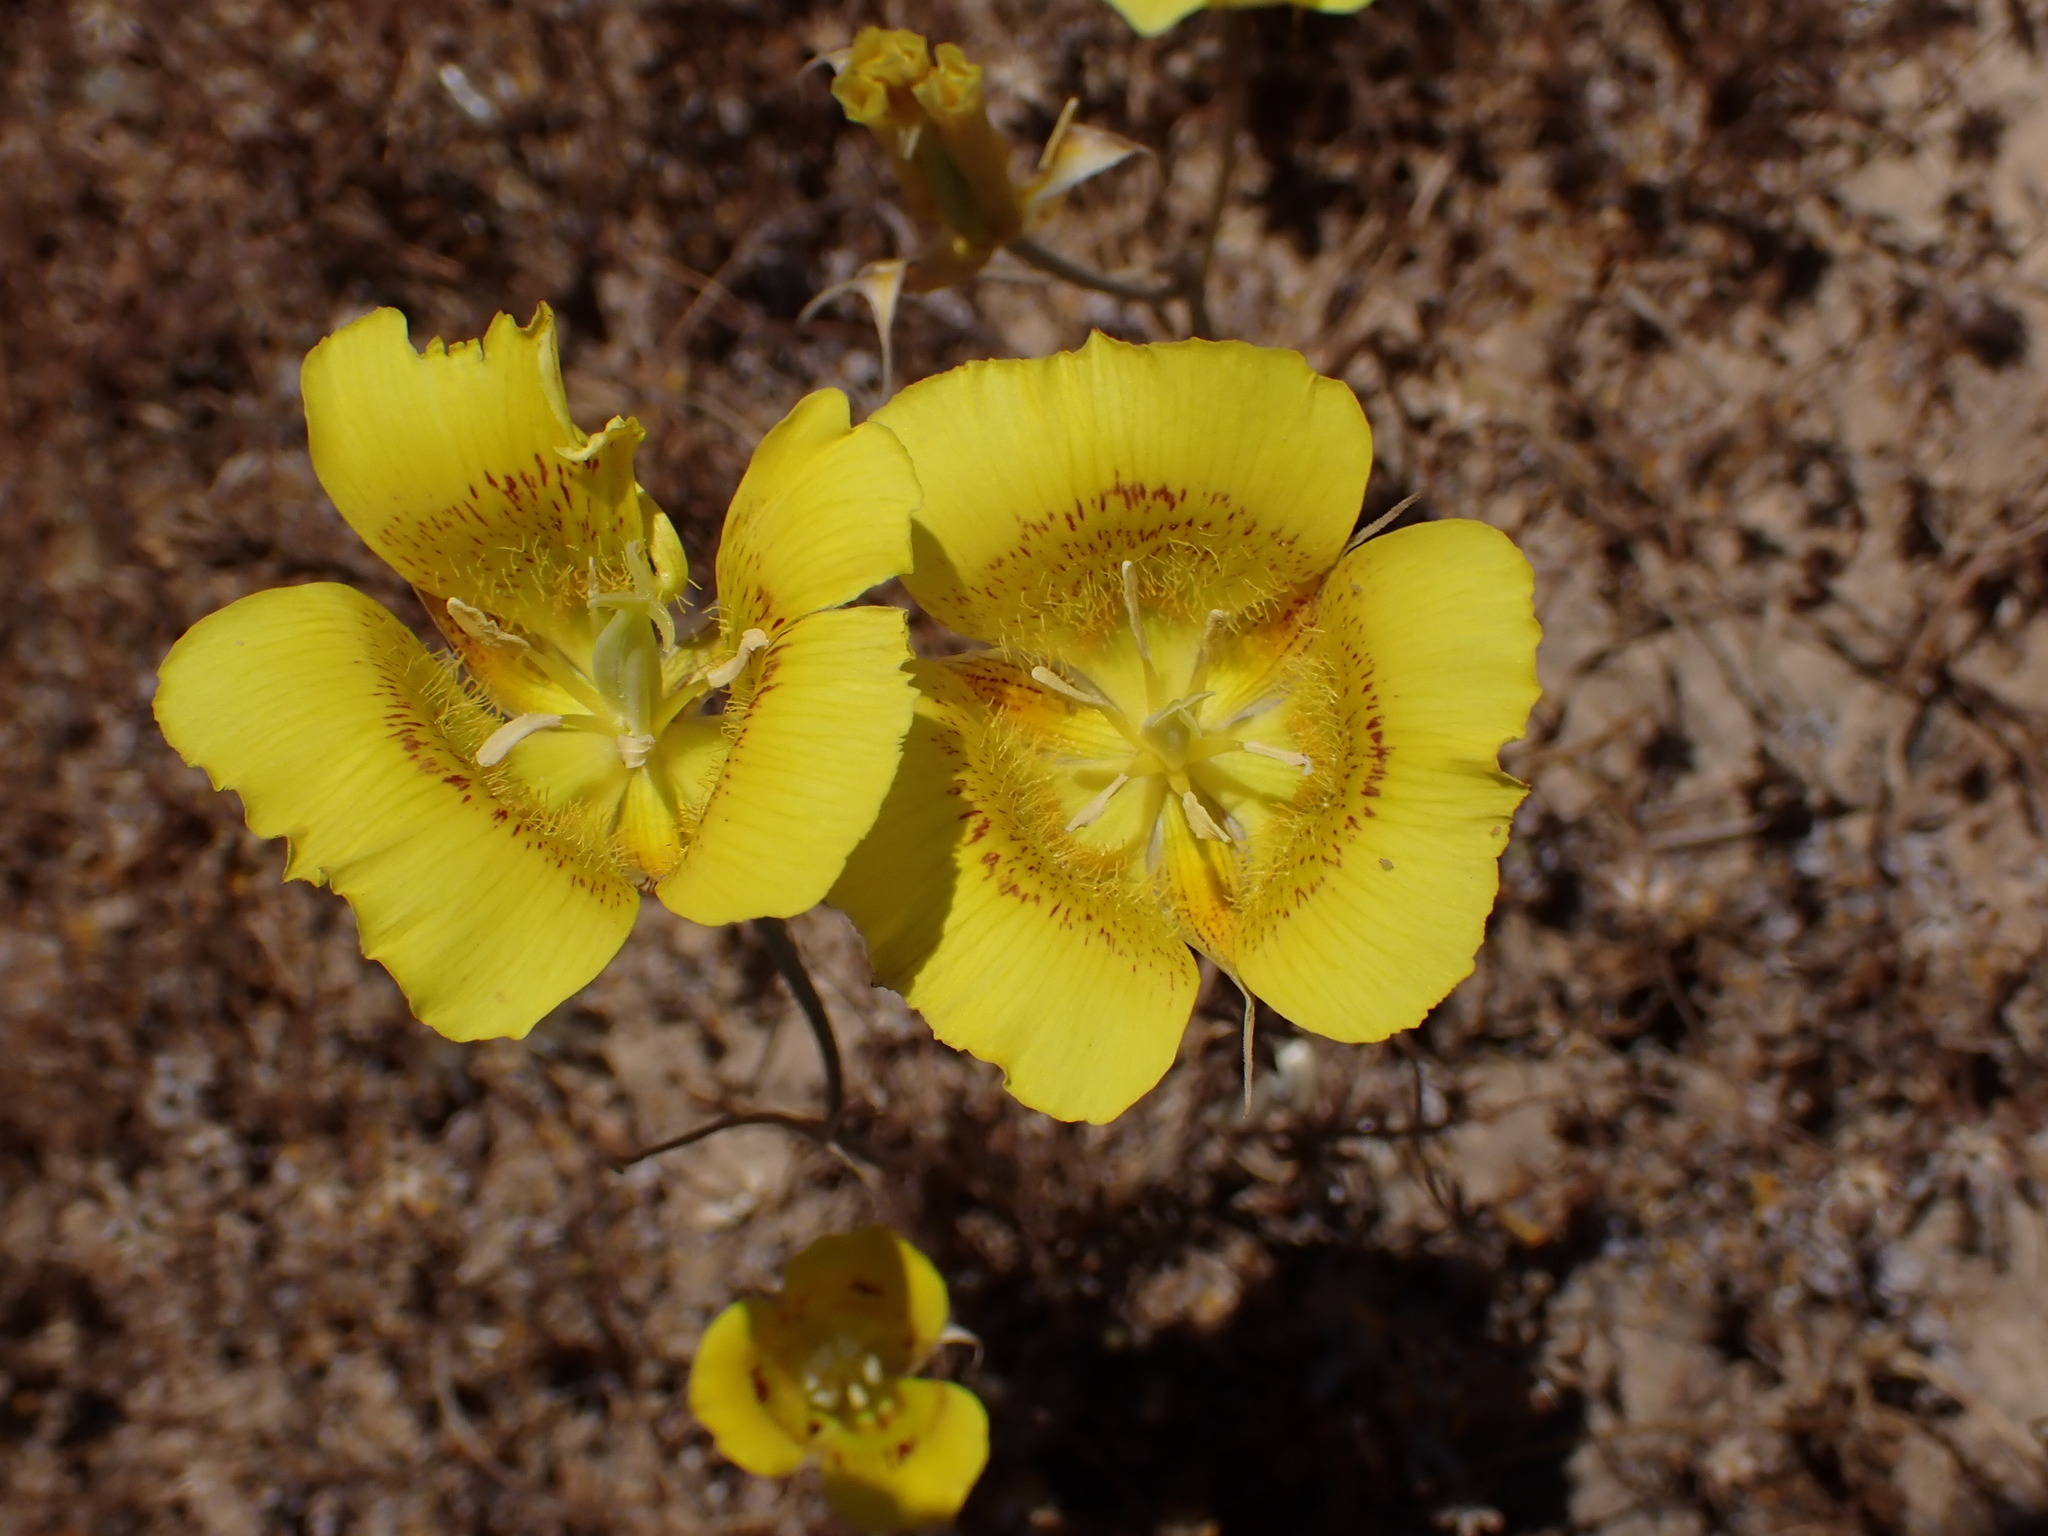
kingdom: Plantae
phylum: Tracheophyta
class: Liliopsida
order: Liliales
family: Liliaceae
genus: Calochortus
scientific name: Calochortus luteus
